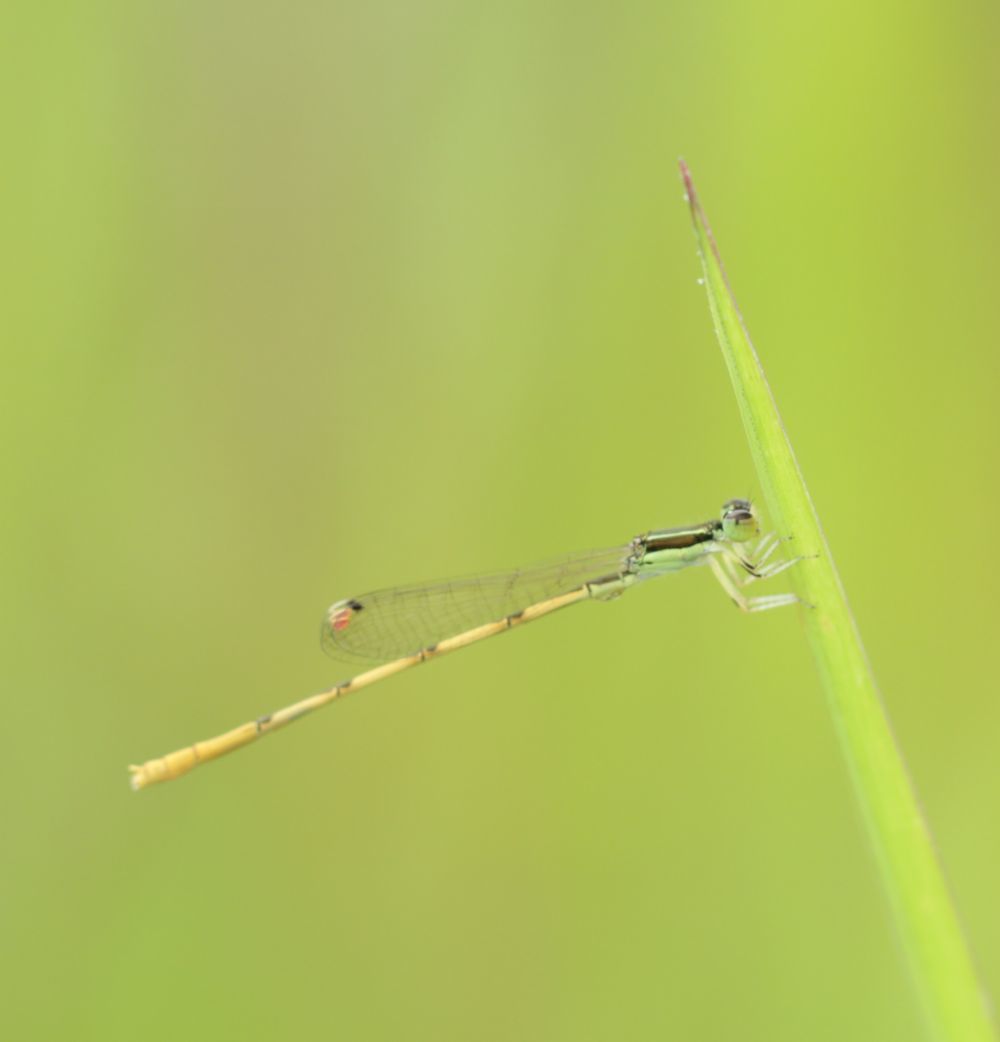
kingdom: Animalia
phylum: Arthropoda
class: Insecta
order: Odonata
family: Coenagrionidae
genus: Ischnura
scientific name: Ischnura hastata
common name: Citrine forktail
